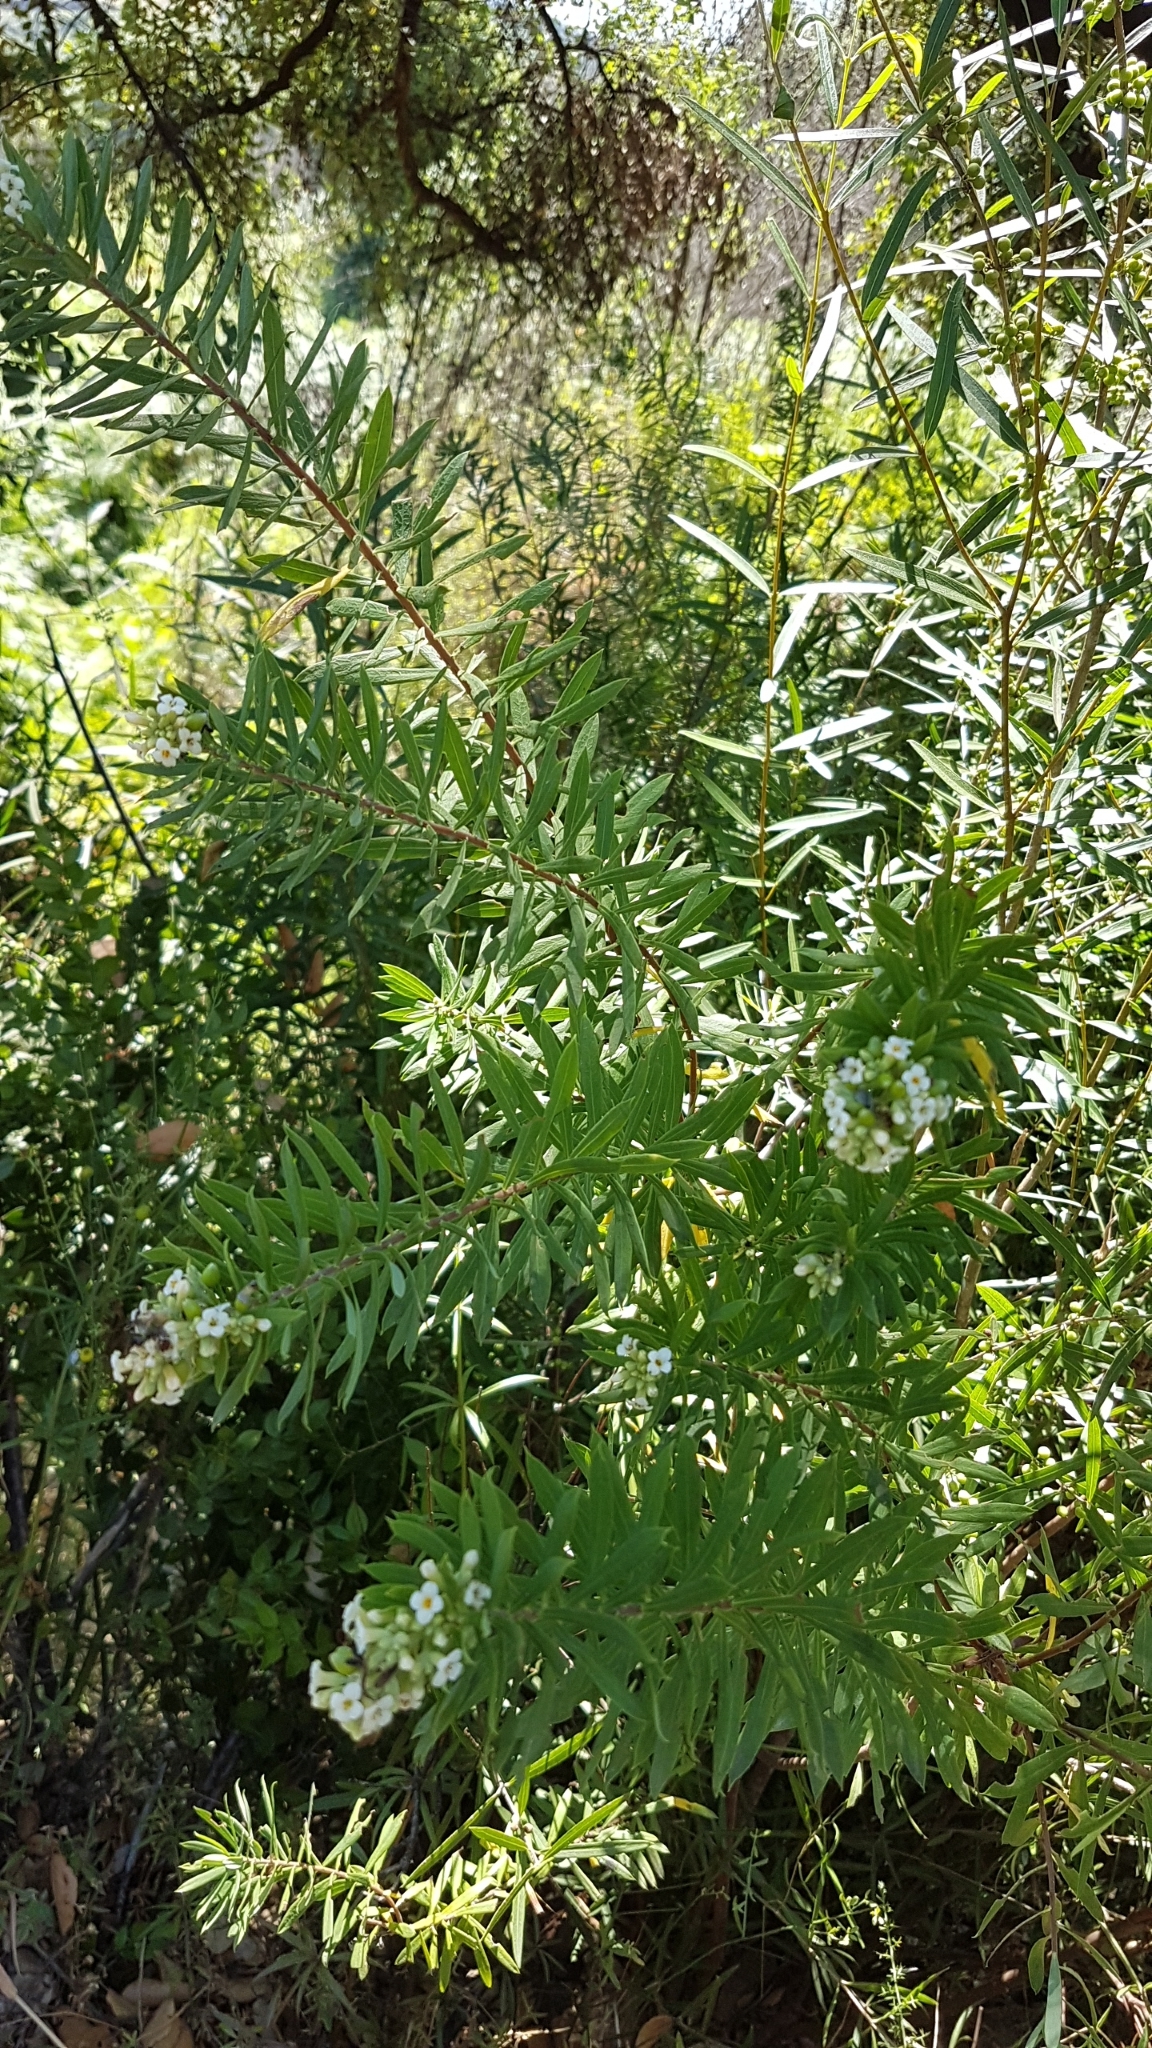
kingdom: Plantae
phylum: Tracheophyta
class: Magnoliopsida
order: Malvales
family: Thymelaeaceae
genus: Daphne
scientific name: Daphne gnidium
